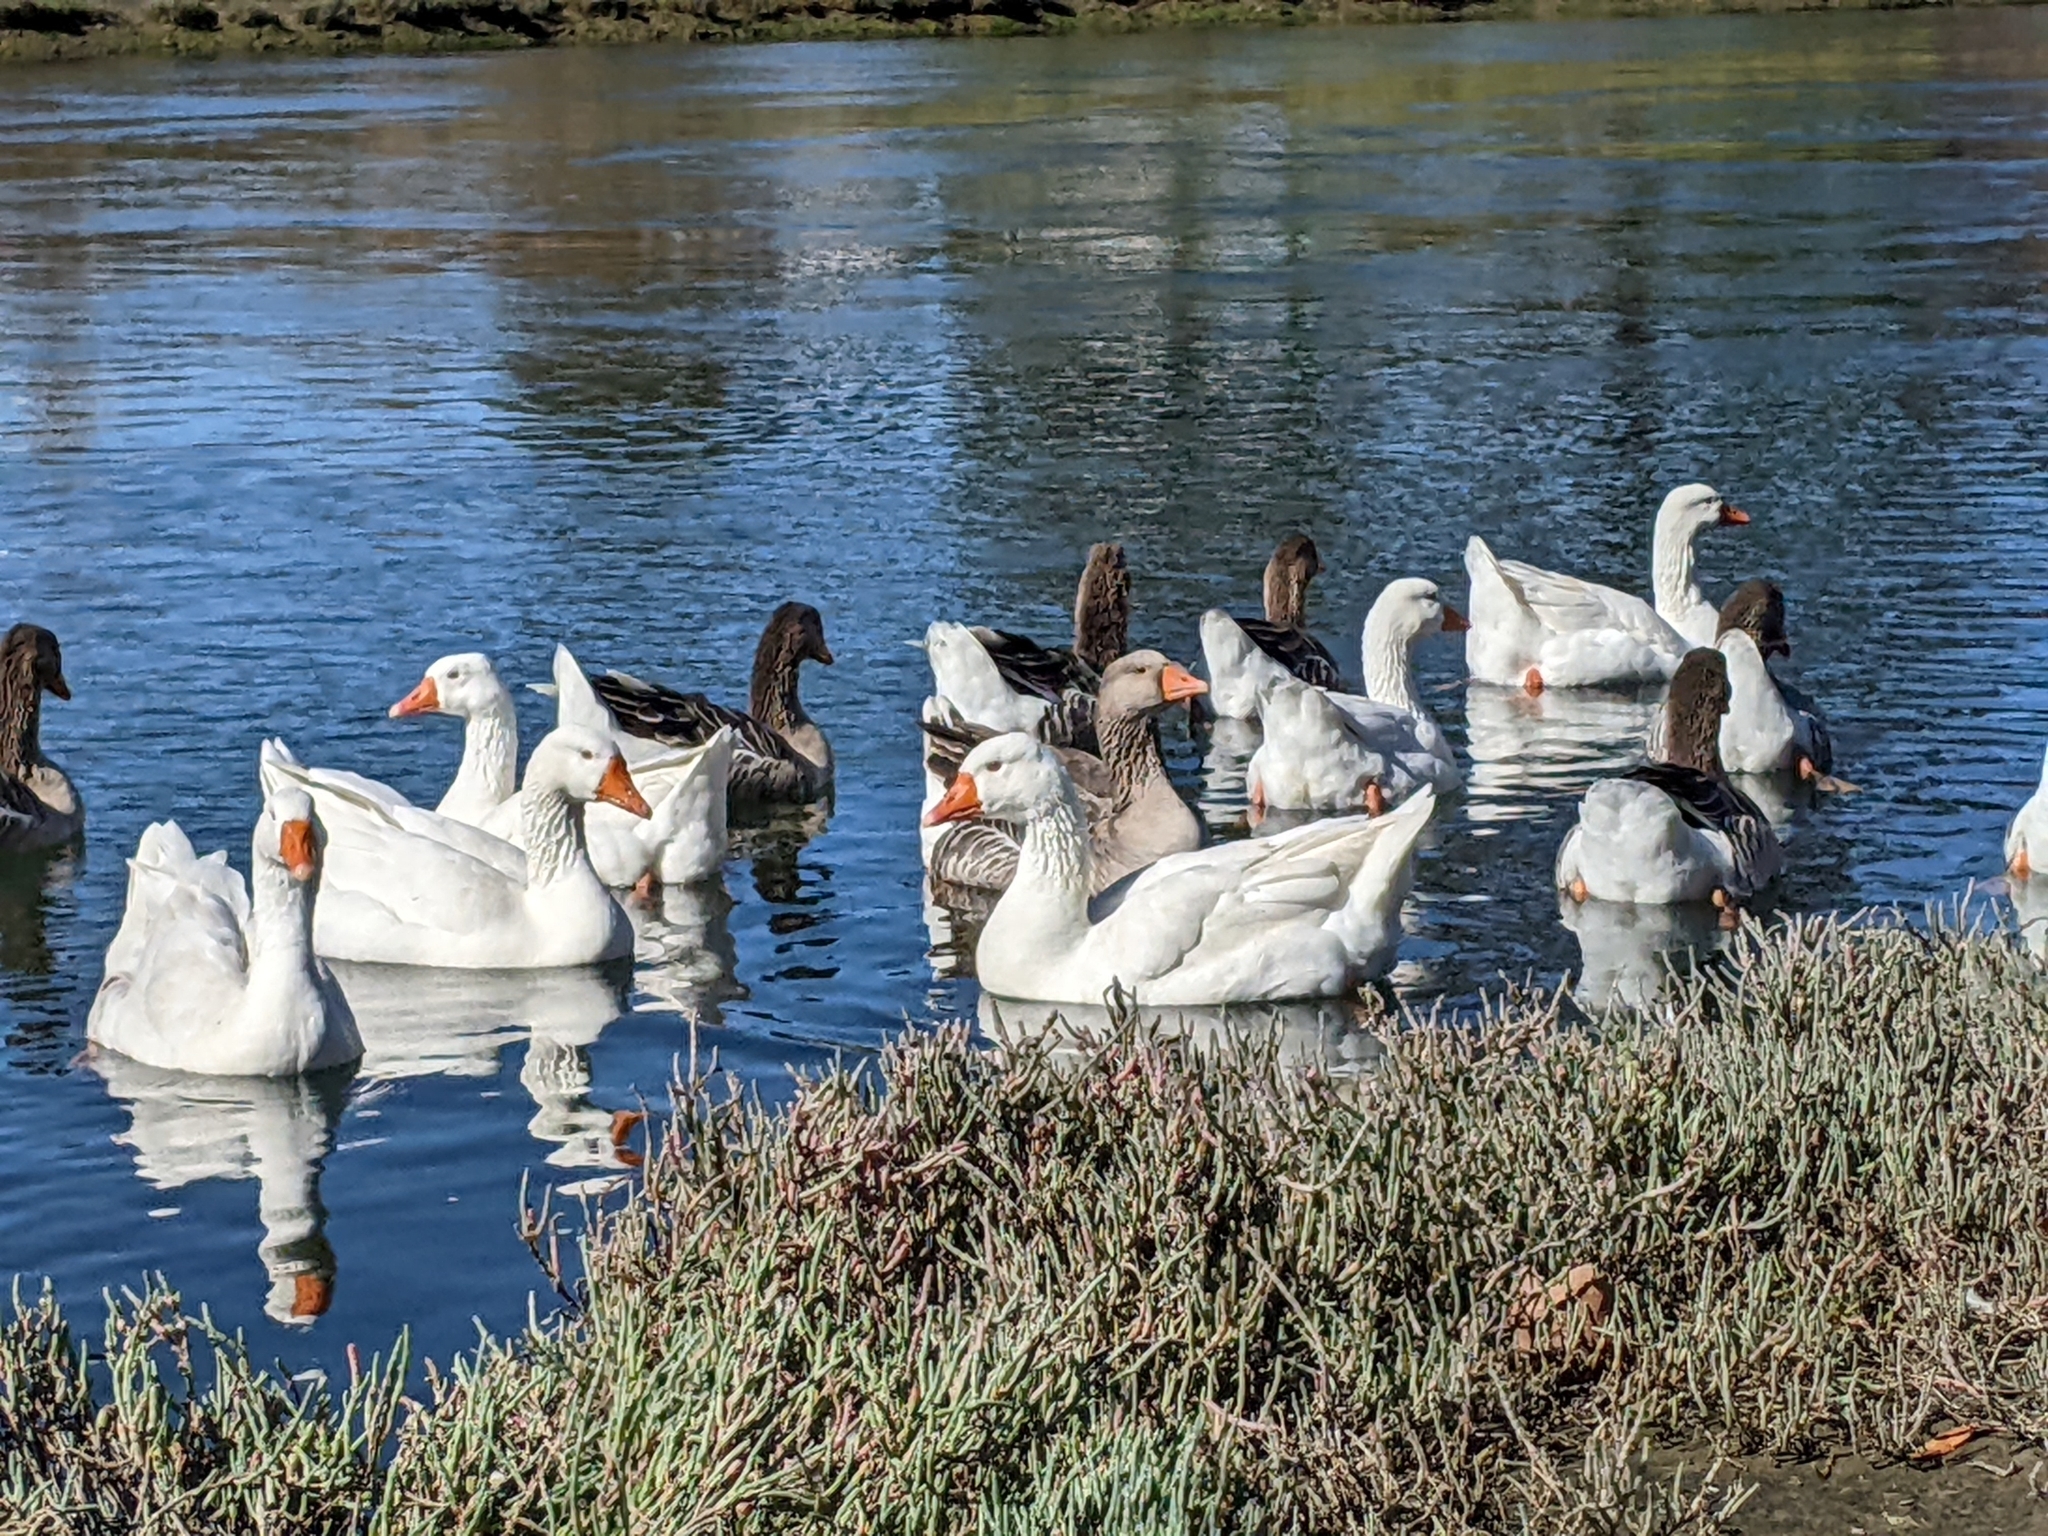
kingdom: Animalia
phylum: Chordata
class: Aves
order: Anseriformes
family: Anatidae
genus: Anser
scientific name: Anser anser
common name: Greylag goose
